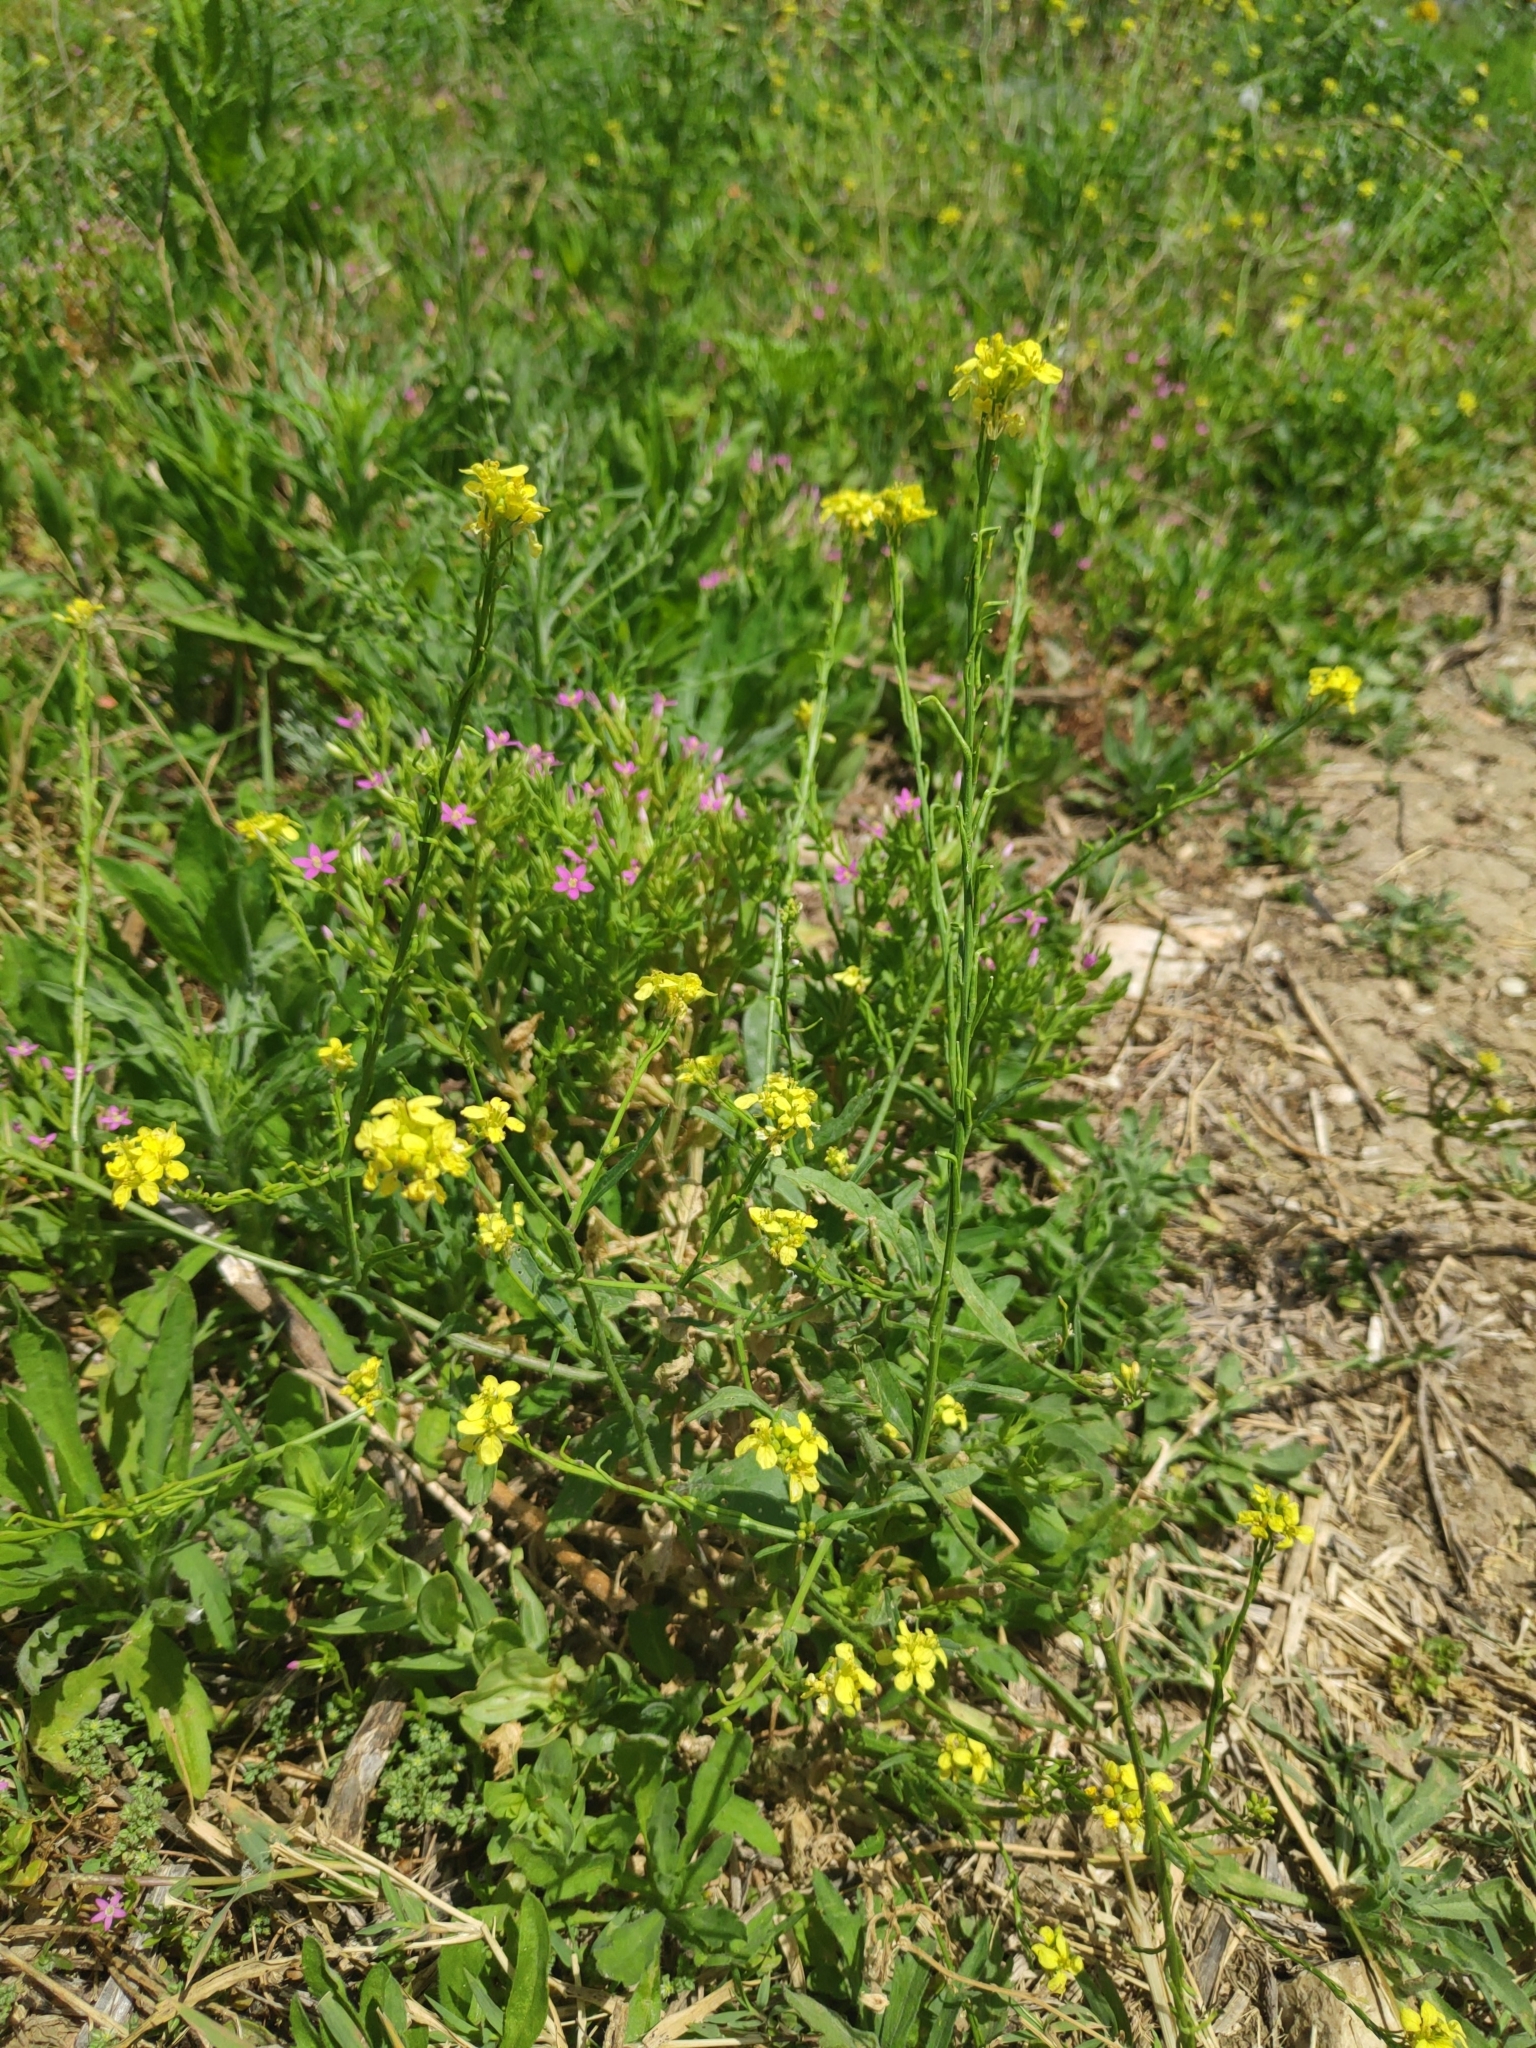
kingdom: Plantae
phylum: Tracheophyta
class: Magnoliopsida
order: Brassicales
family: Brassicaceae
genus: Sisymbrium
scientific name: Sisymbrium officinale
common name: Hedge mustard
